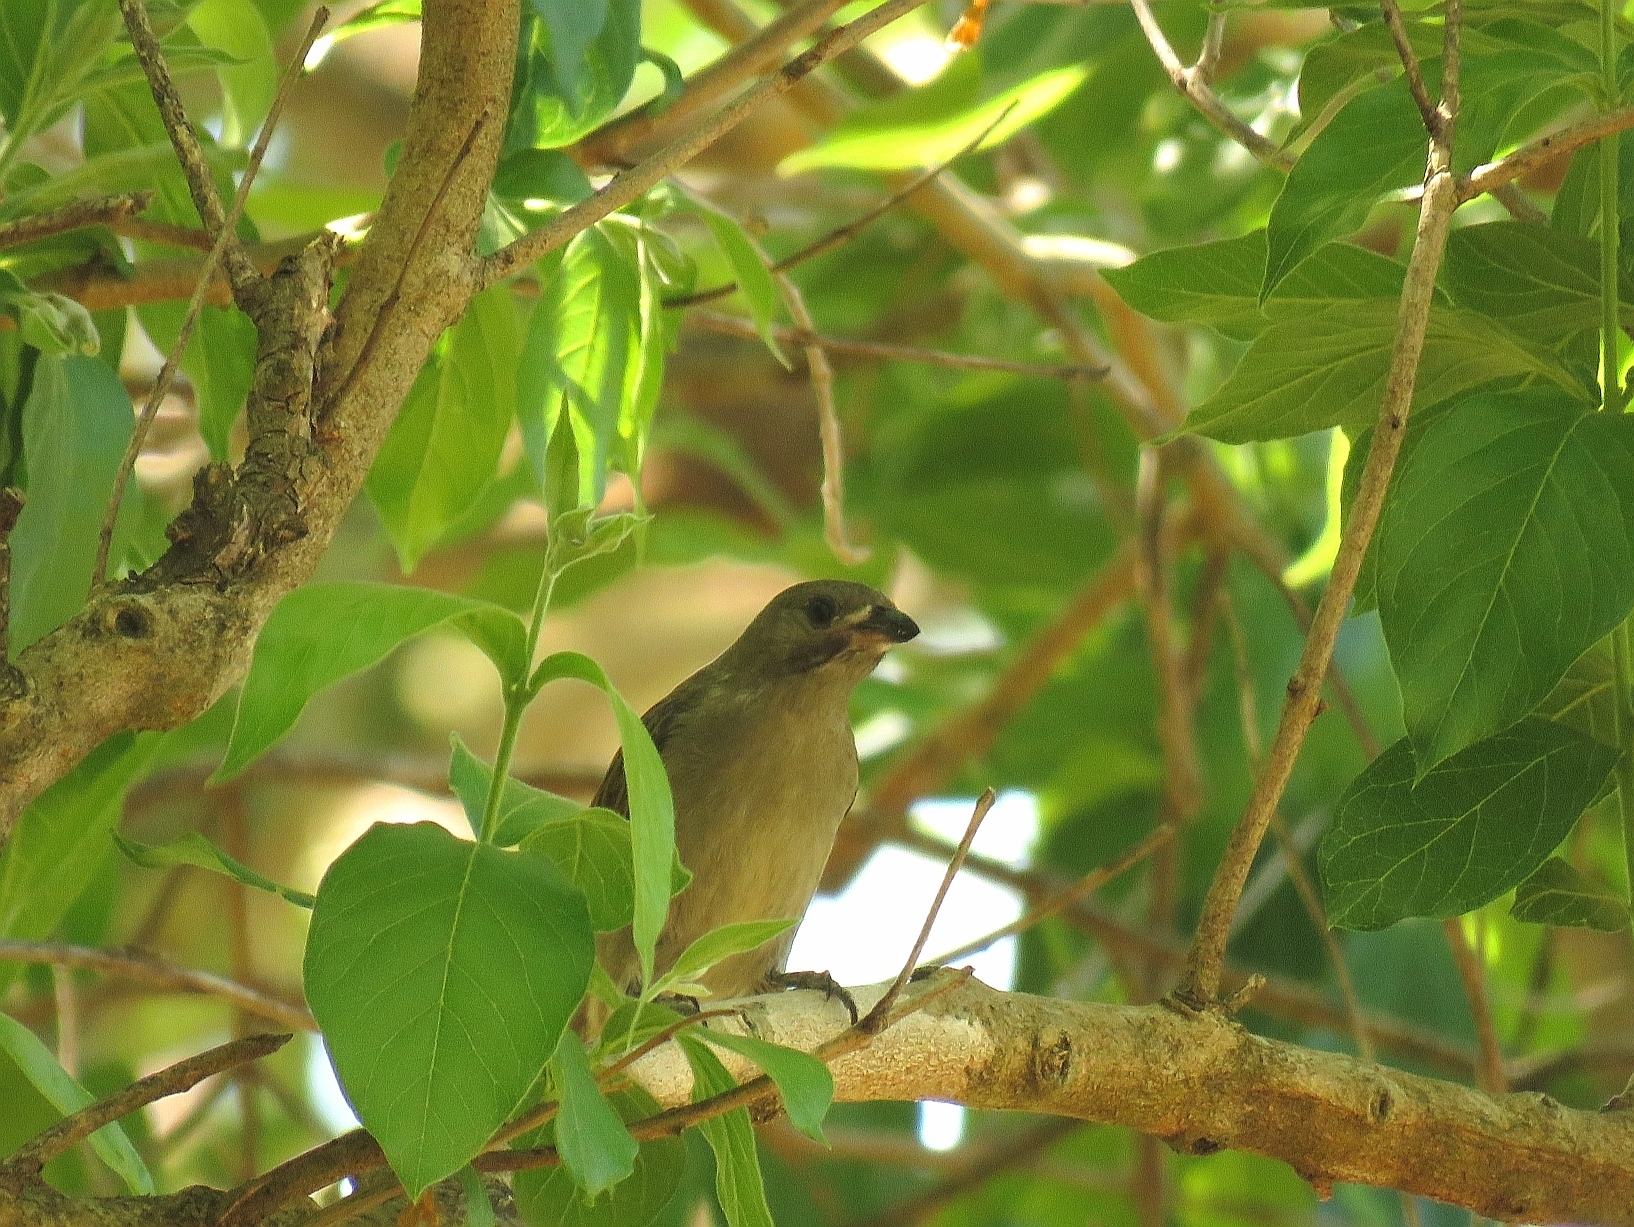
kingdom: Animalia
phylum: Chordata
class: Aves
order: Piciformes
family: Indicatoridae
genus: Indicator
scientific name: Indicator minor
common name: Lesser honeyguide
